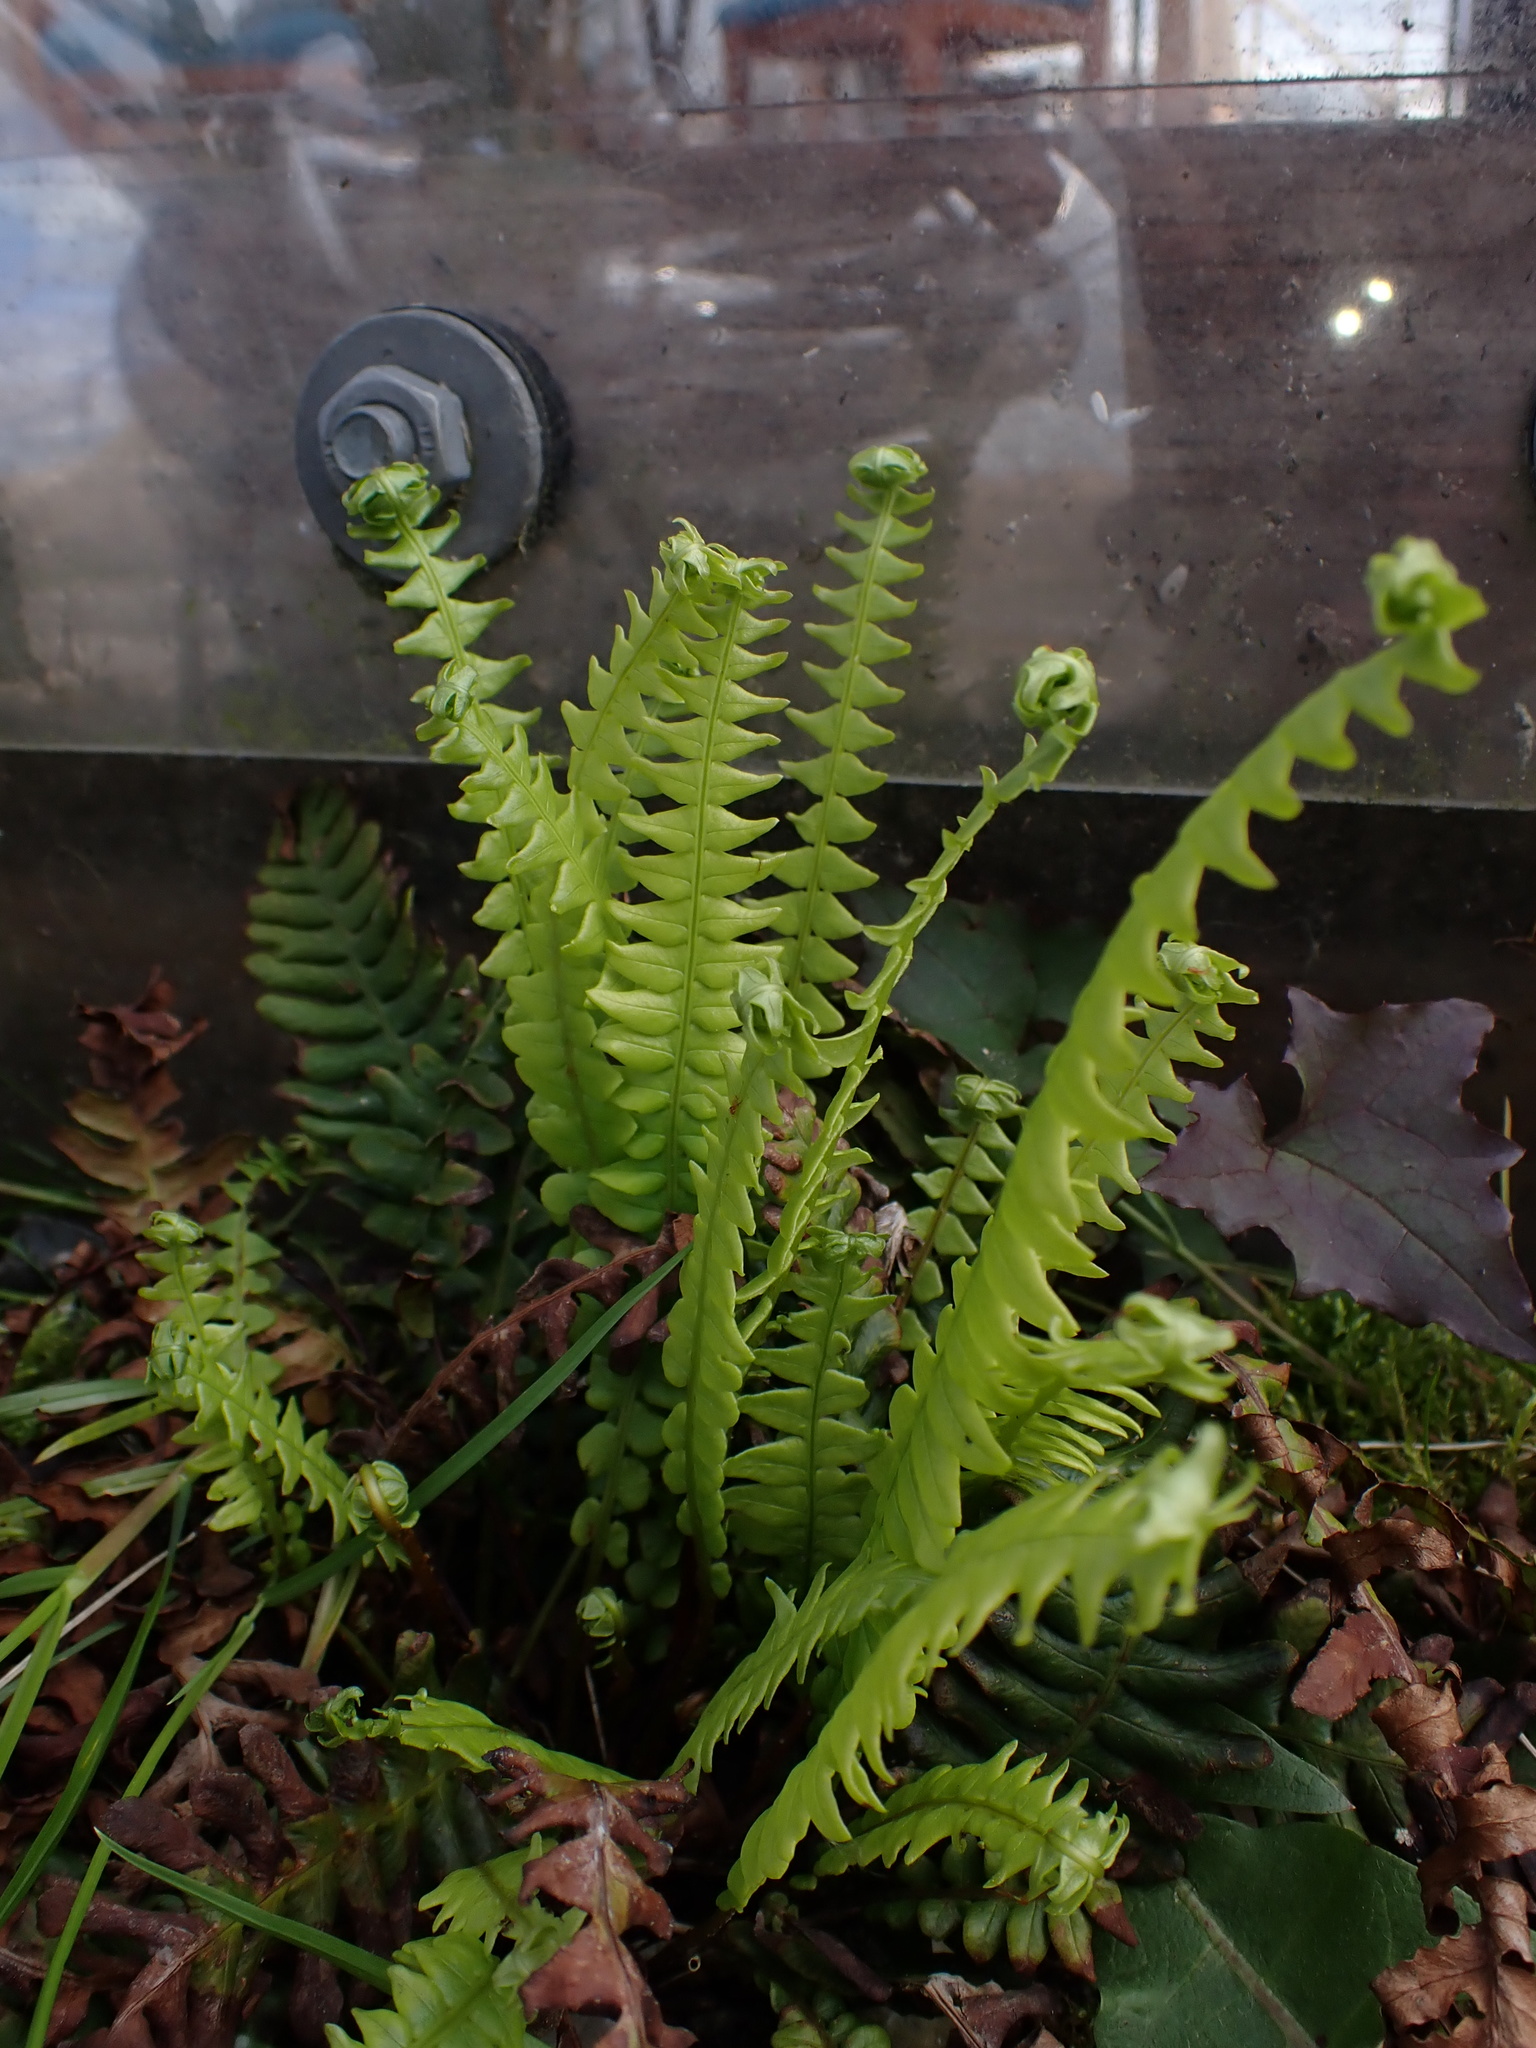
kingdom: Plantae
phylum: Tracheophyta
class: Polypodiopsida
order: Polypodiales
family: Blechnaceae
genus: Struthiopteris
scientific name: Struthiopteris spicant
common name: Deer fern
